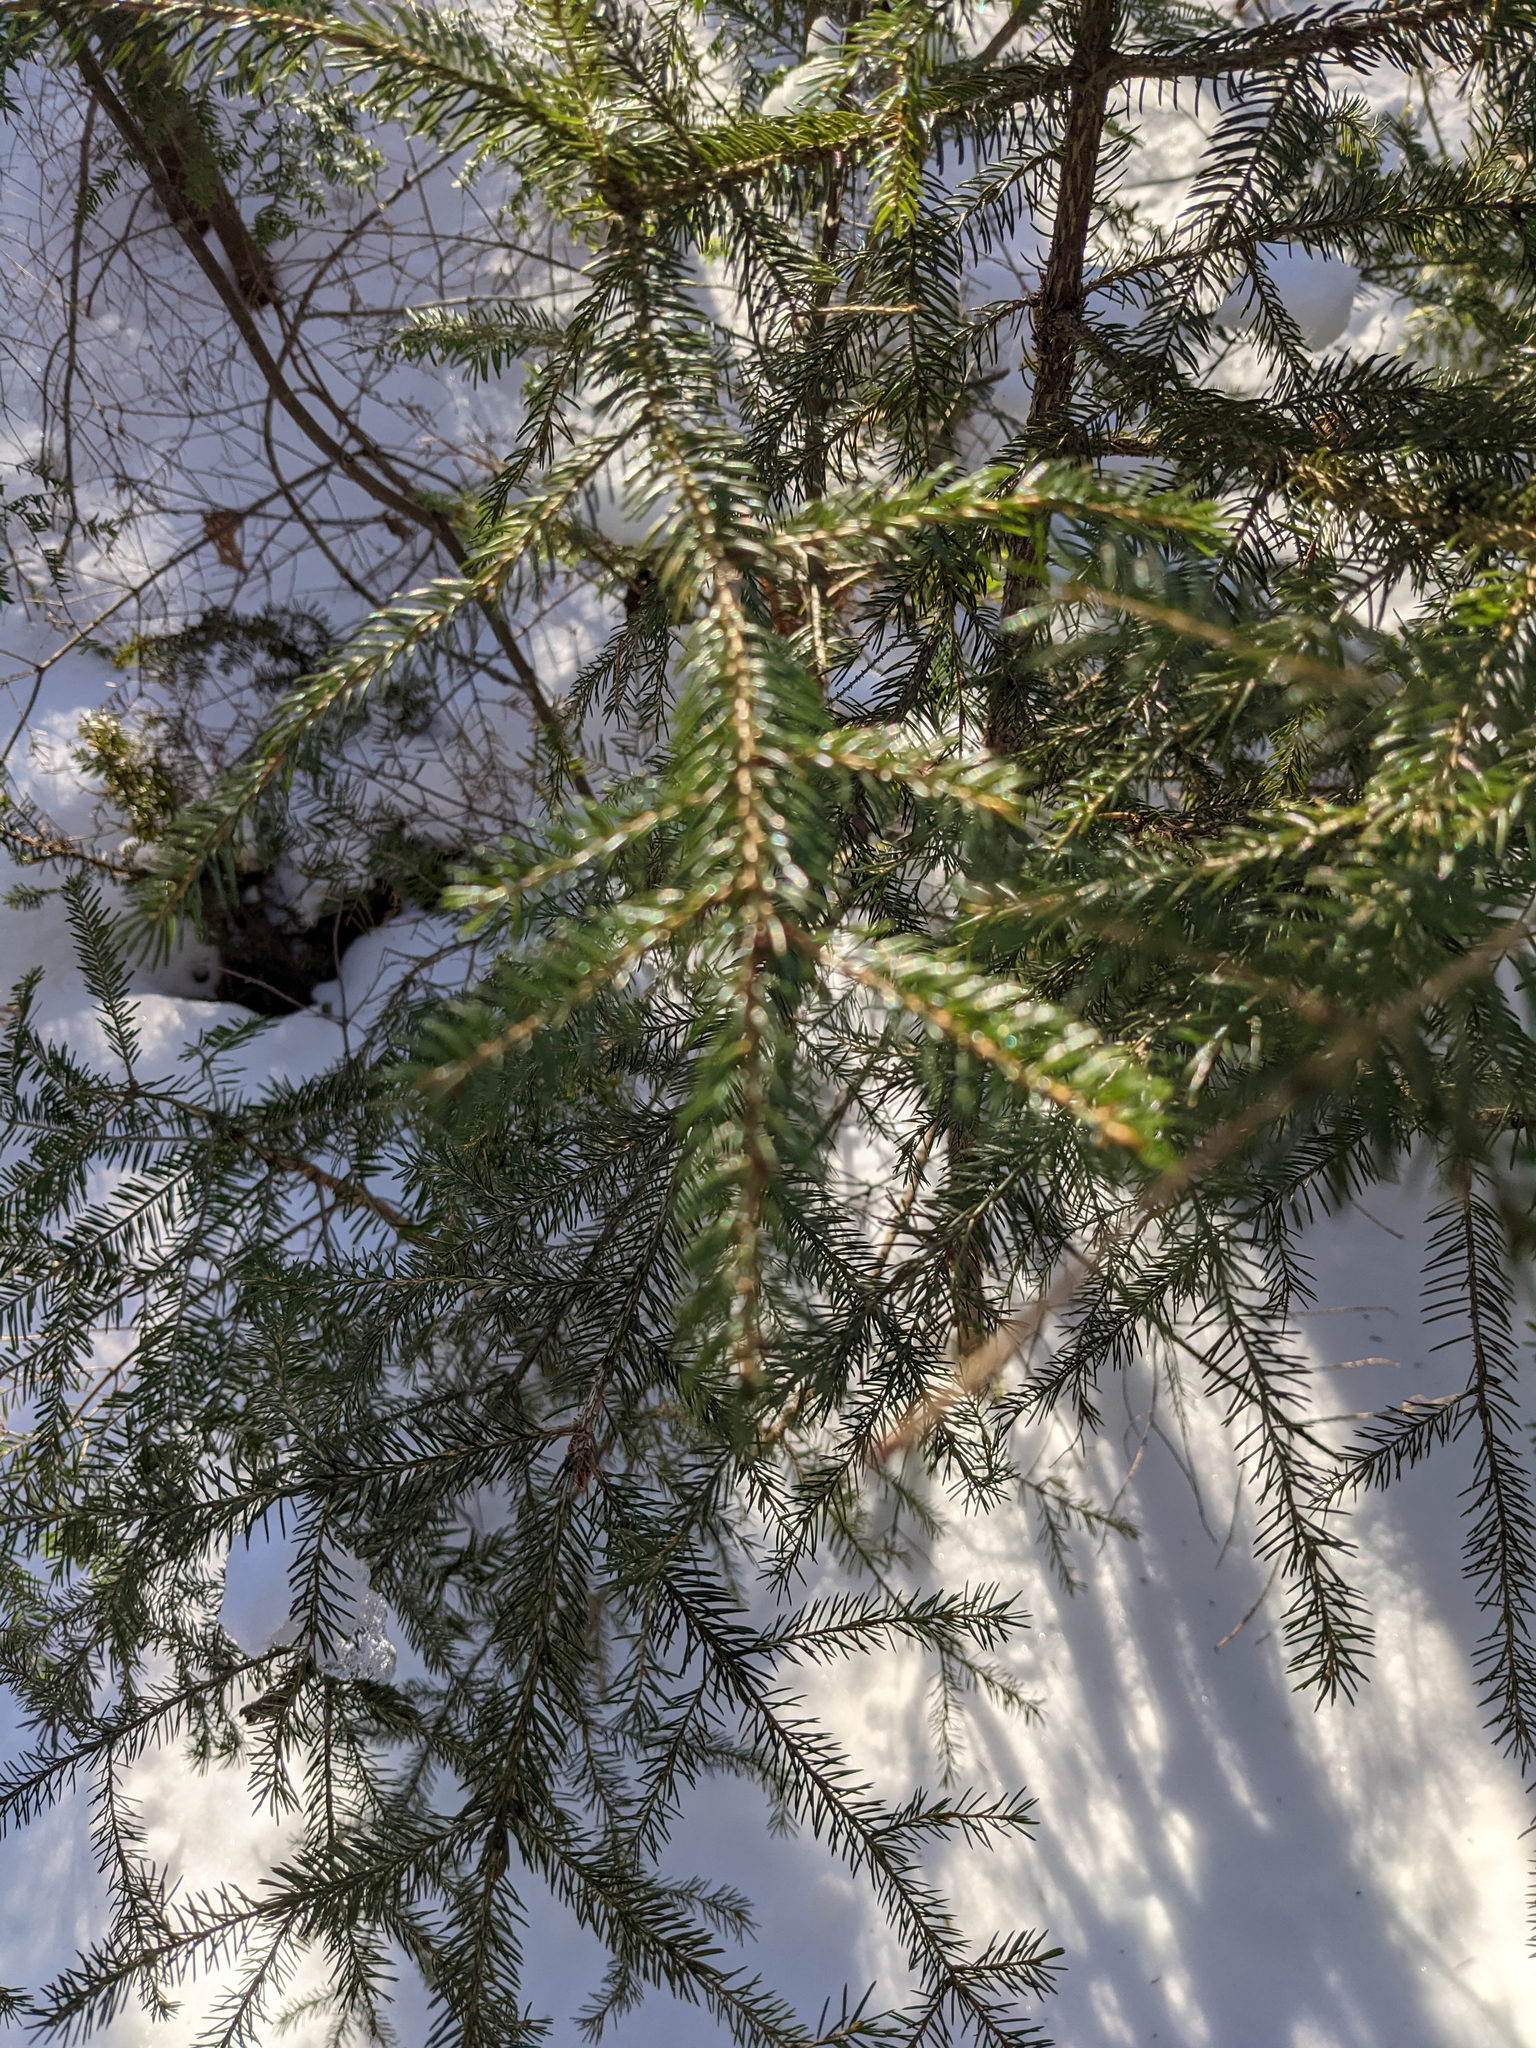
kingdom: Plantae
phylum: Tracheophyta
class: Pinopsida
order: Pinales
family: Pinaceae
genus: Picea
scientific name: Picea rubens
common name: Red spruce
